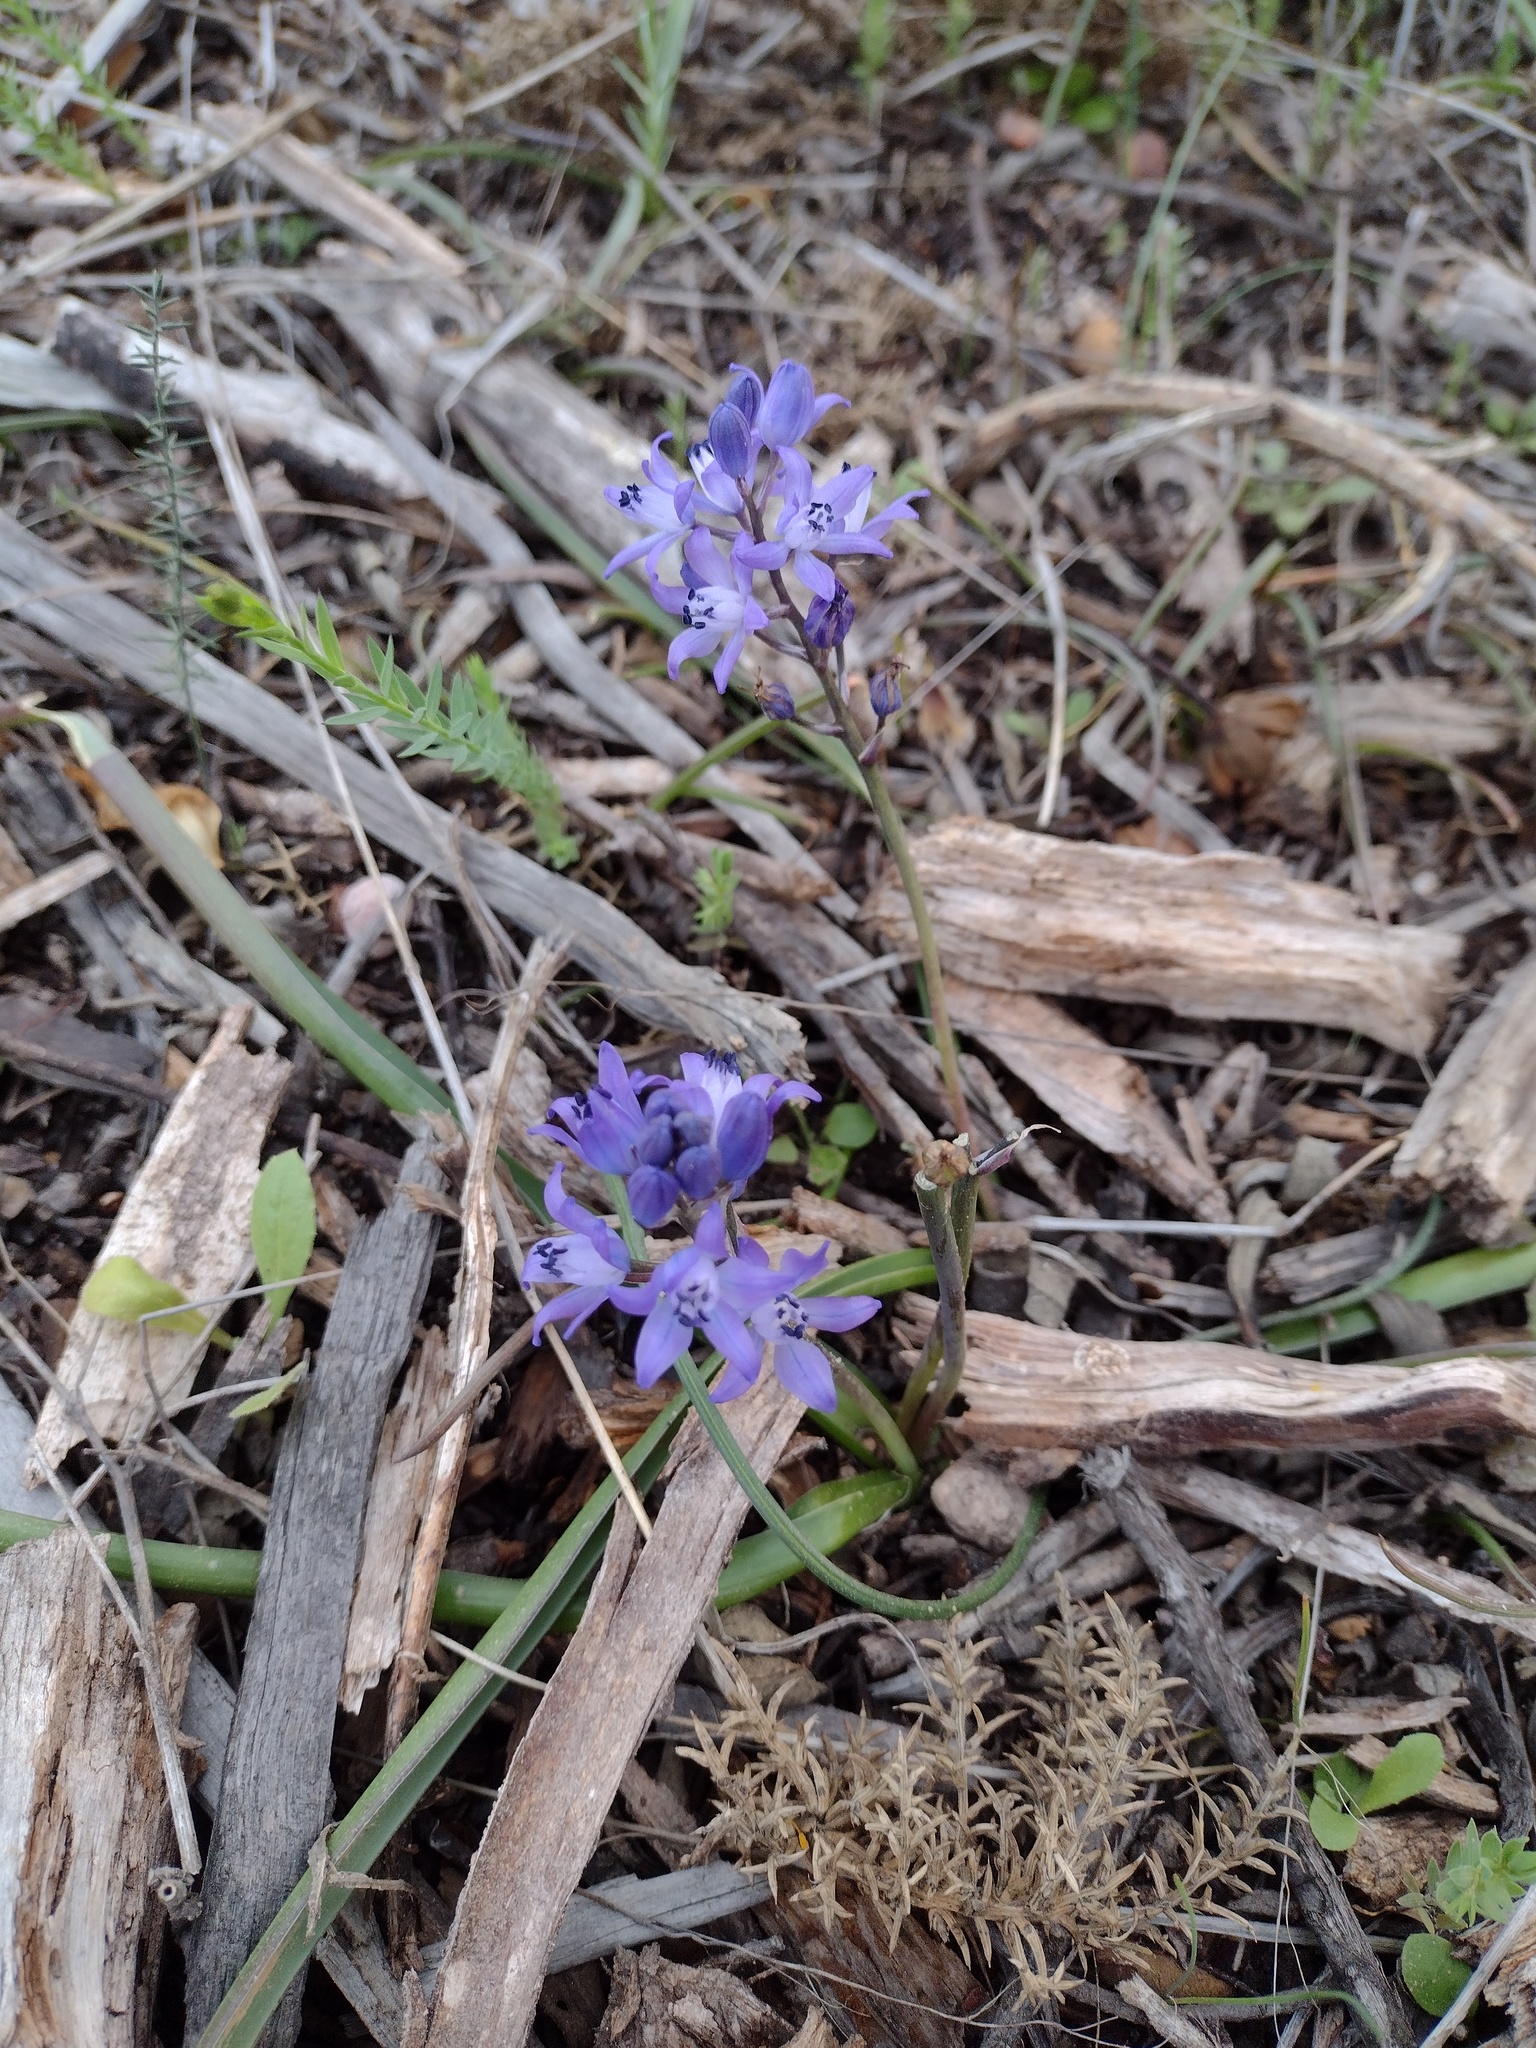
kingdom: Plantae
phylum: Tracheophyta
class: Liliopsida
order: Asparagales
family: Asparagaceae
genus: Scilla
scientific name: Scilla verna
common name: Spring squill
